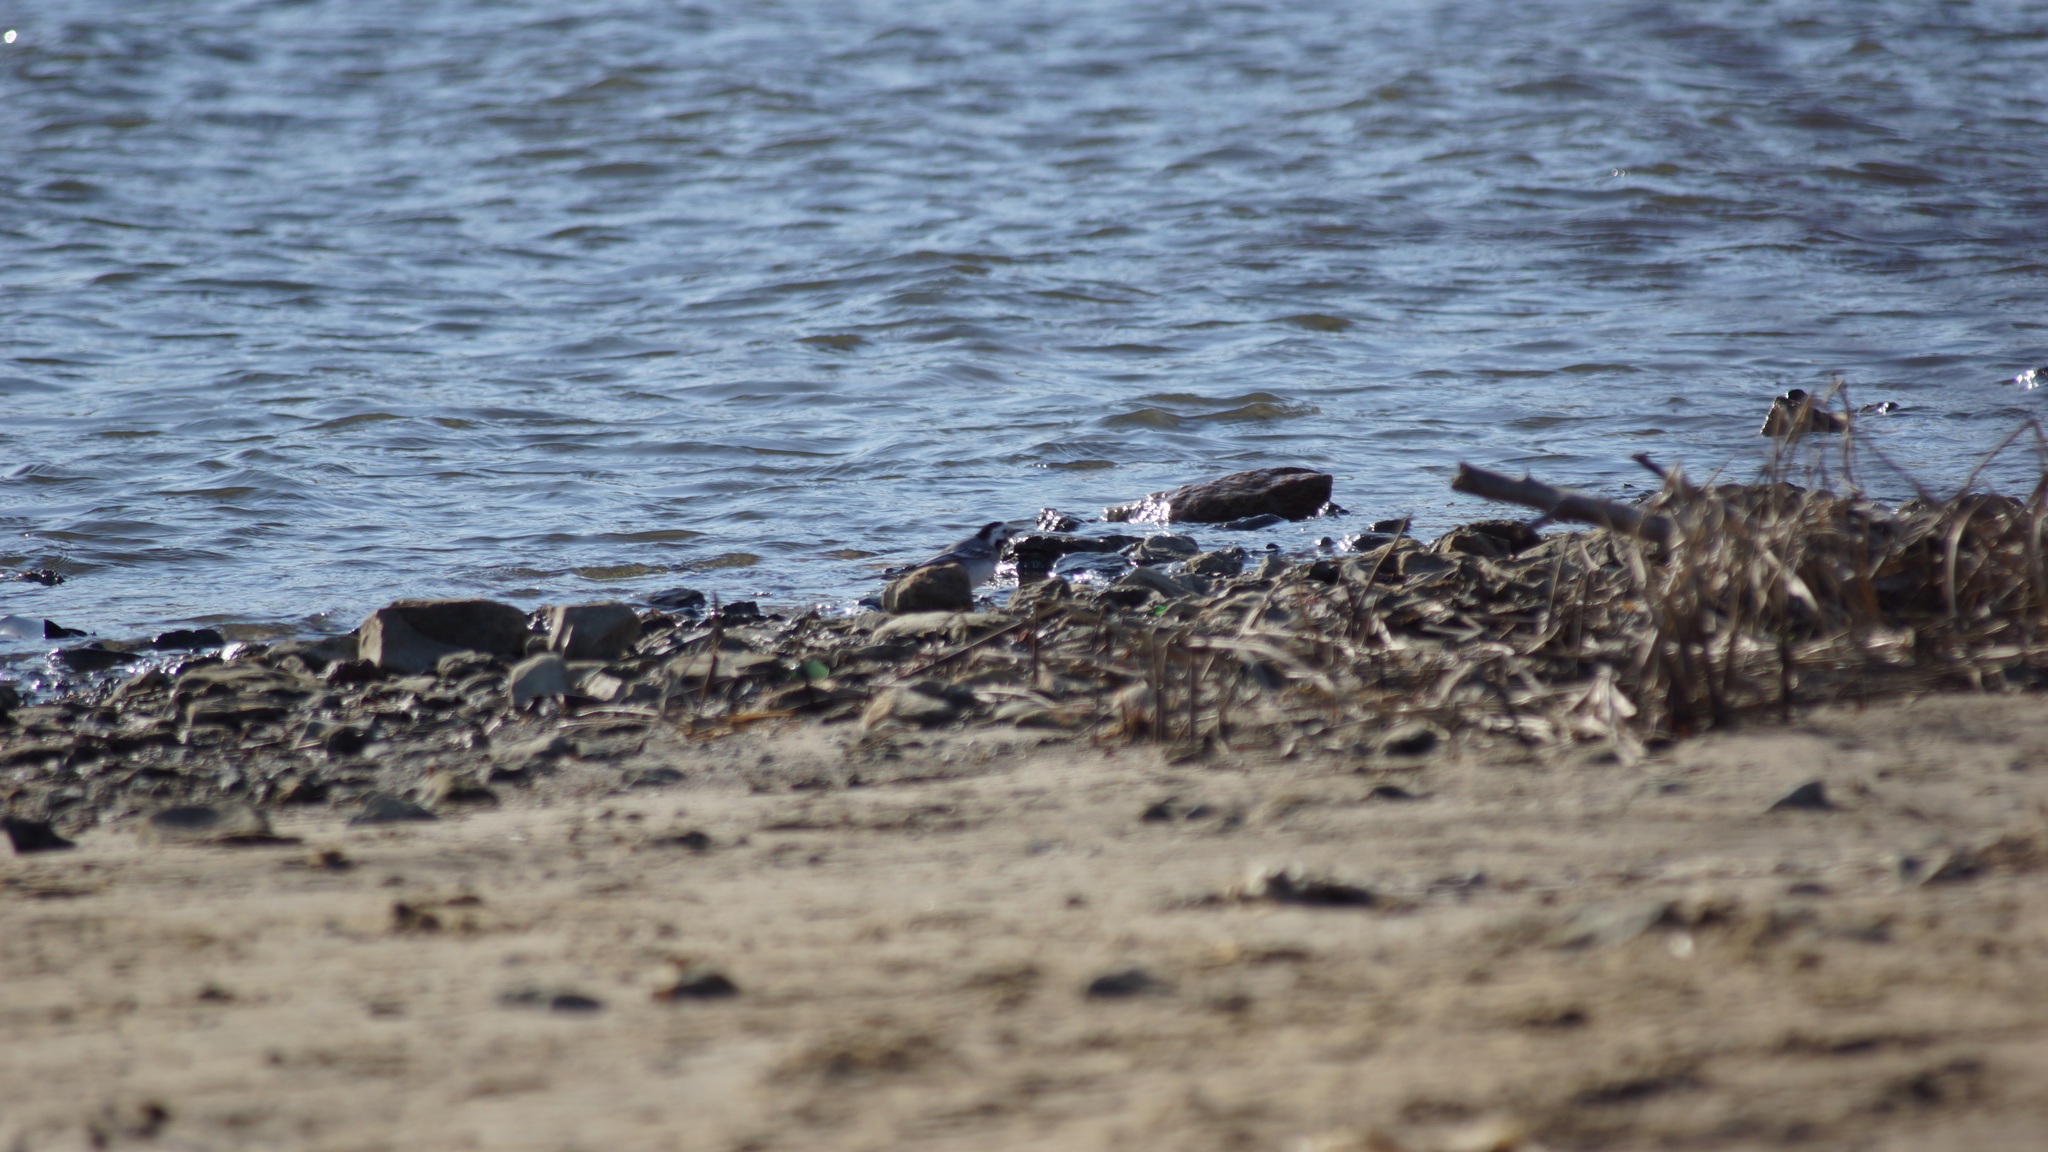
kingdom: Animalia
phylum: Chordata
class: Aves
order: Passeriformes
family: Motacillidae
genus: Motacilla
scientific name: Motacilla alba
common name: White wagtail
